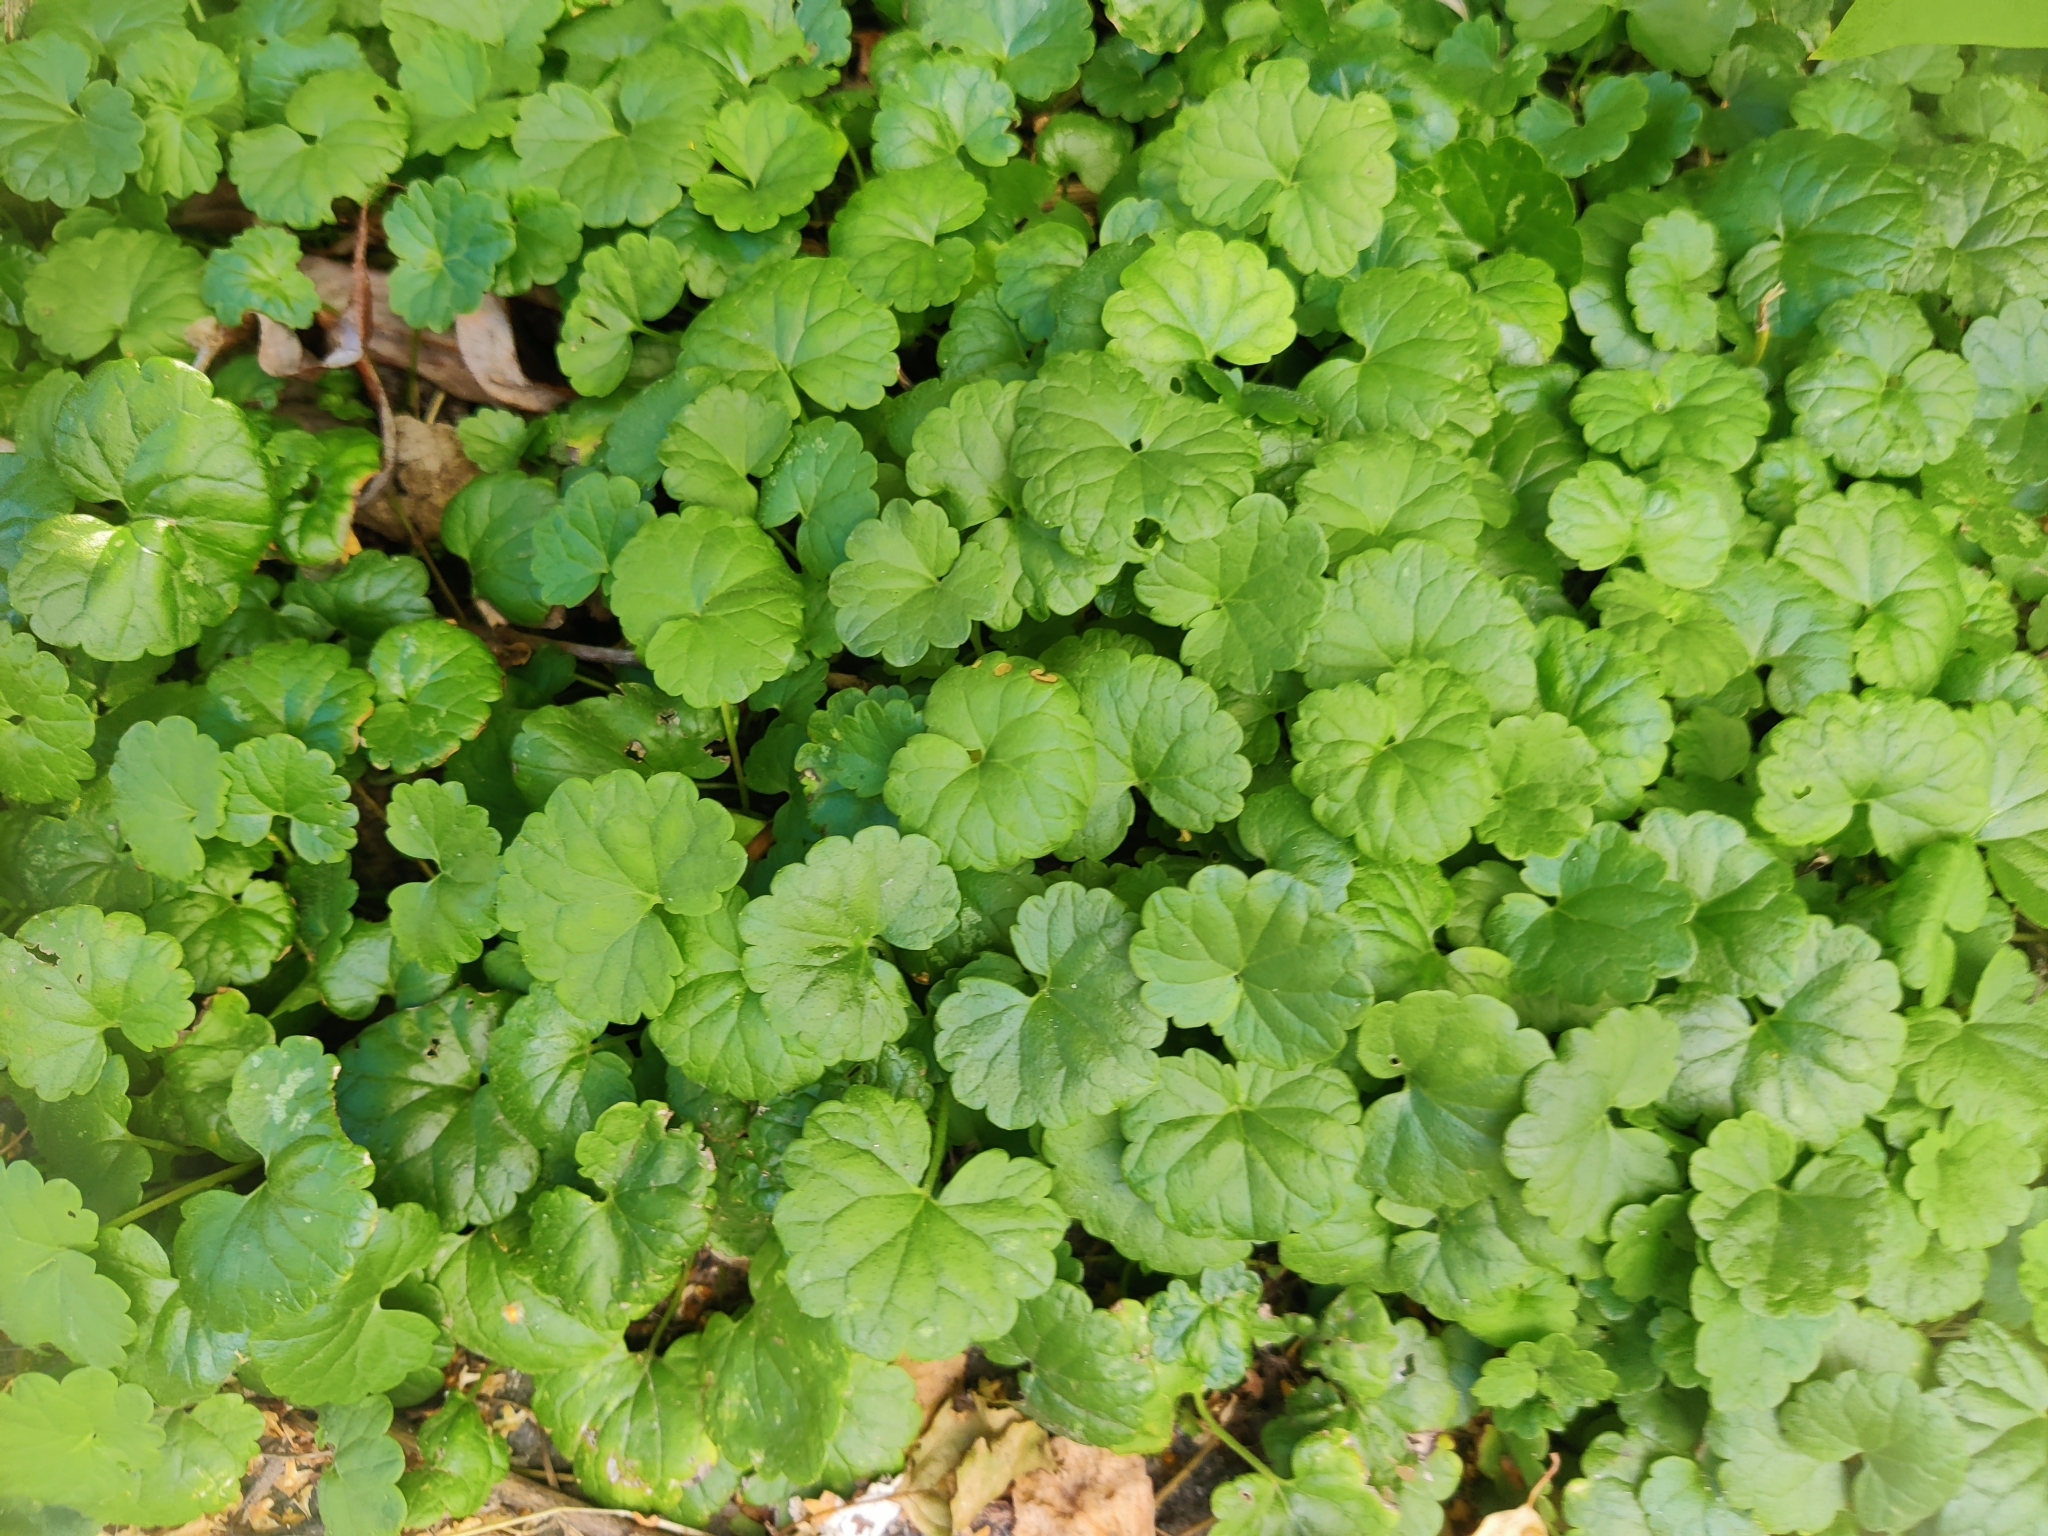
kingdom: Plantae
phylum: Tracheophyta
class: Magnoliopsida
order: Lamiales
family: Lamiaceae
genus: Glechoma
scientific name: Glechoma hederacea
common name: Ground ivy
